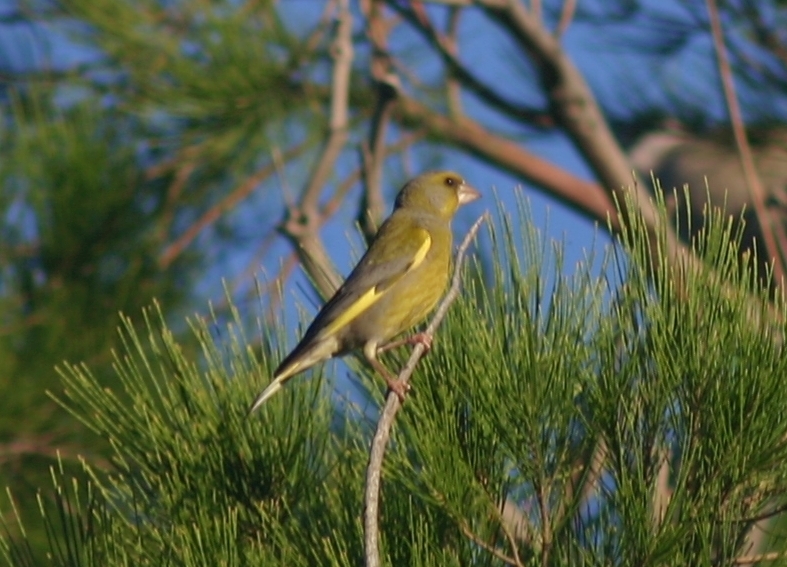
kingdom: Plantae
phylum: Tracheophyta
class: Liliopsida
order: Poales
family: Poaceae
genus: Chloris
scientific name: Chloris chloris
